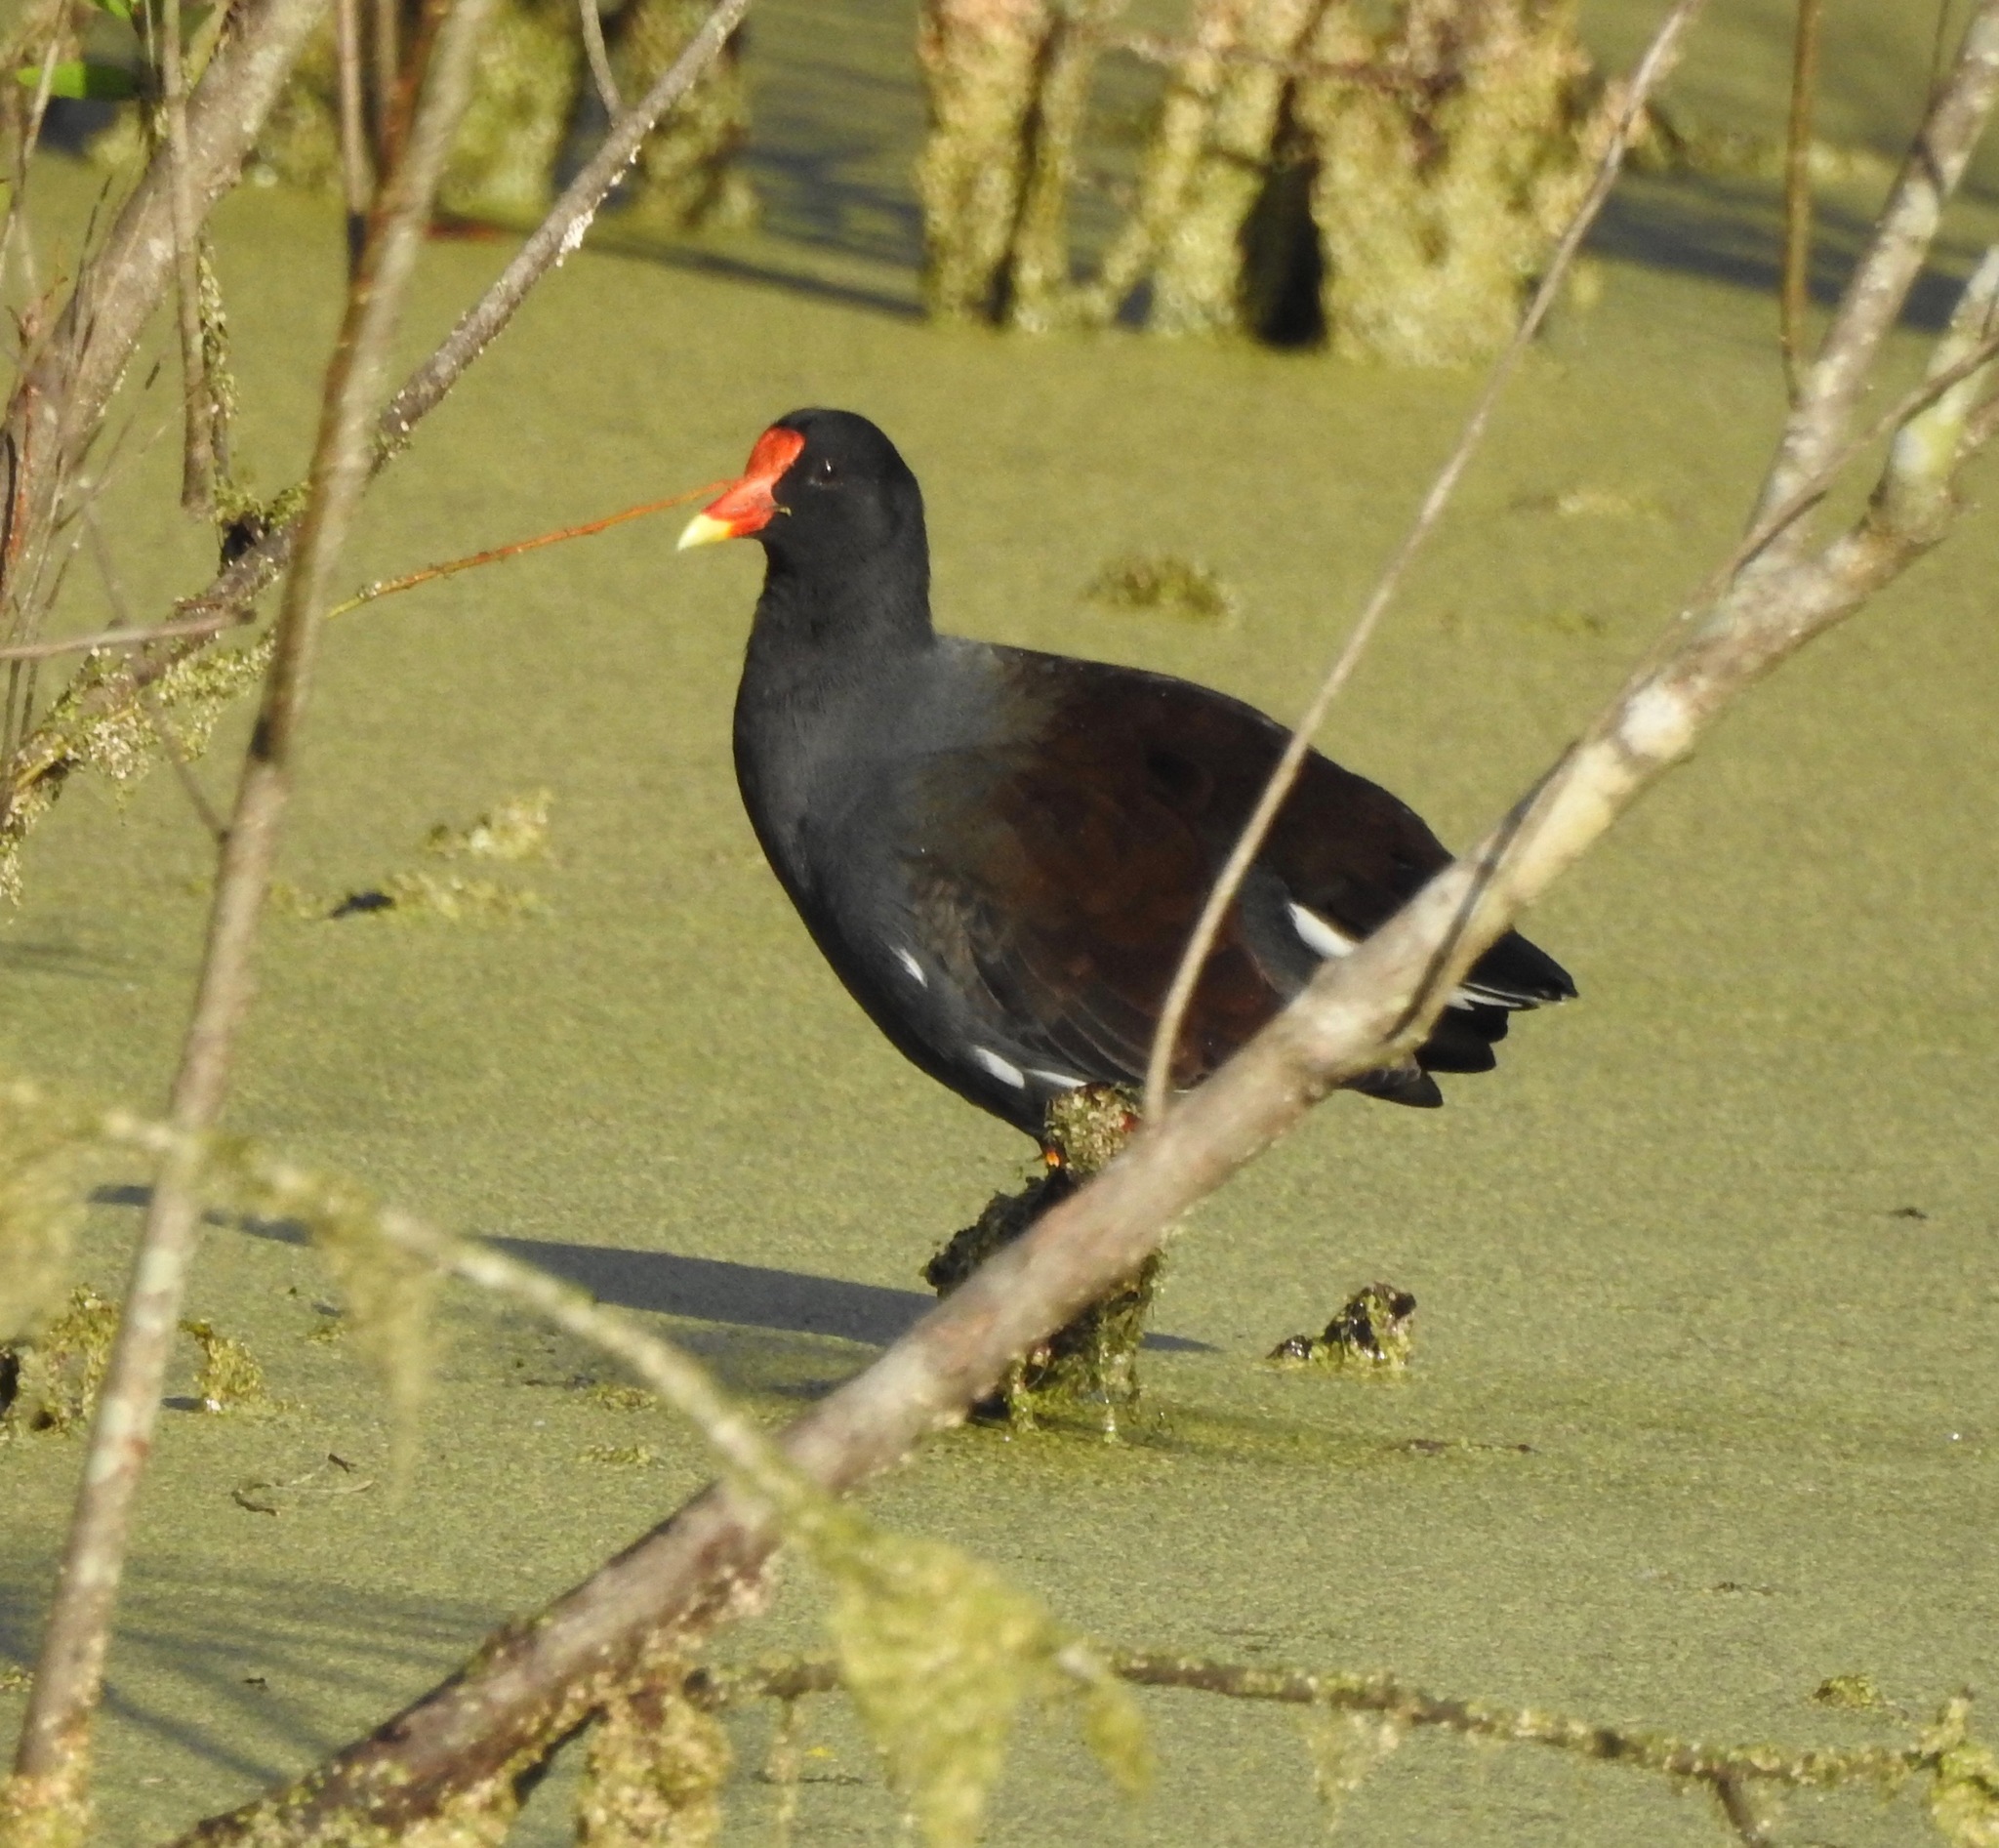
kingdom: Animalia
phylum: Chordata
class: Aves
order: Gruiformes
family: Rallidae
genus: Gallinula
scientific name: Gallinula chloropus
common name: Common moorhen
